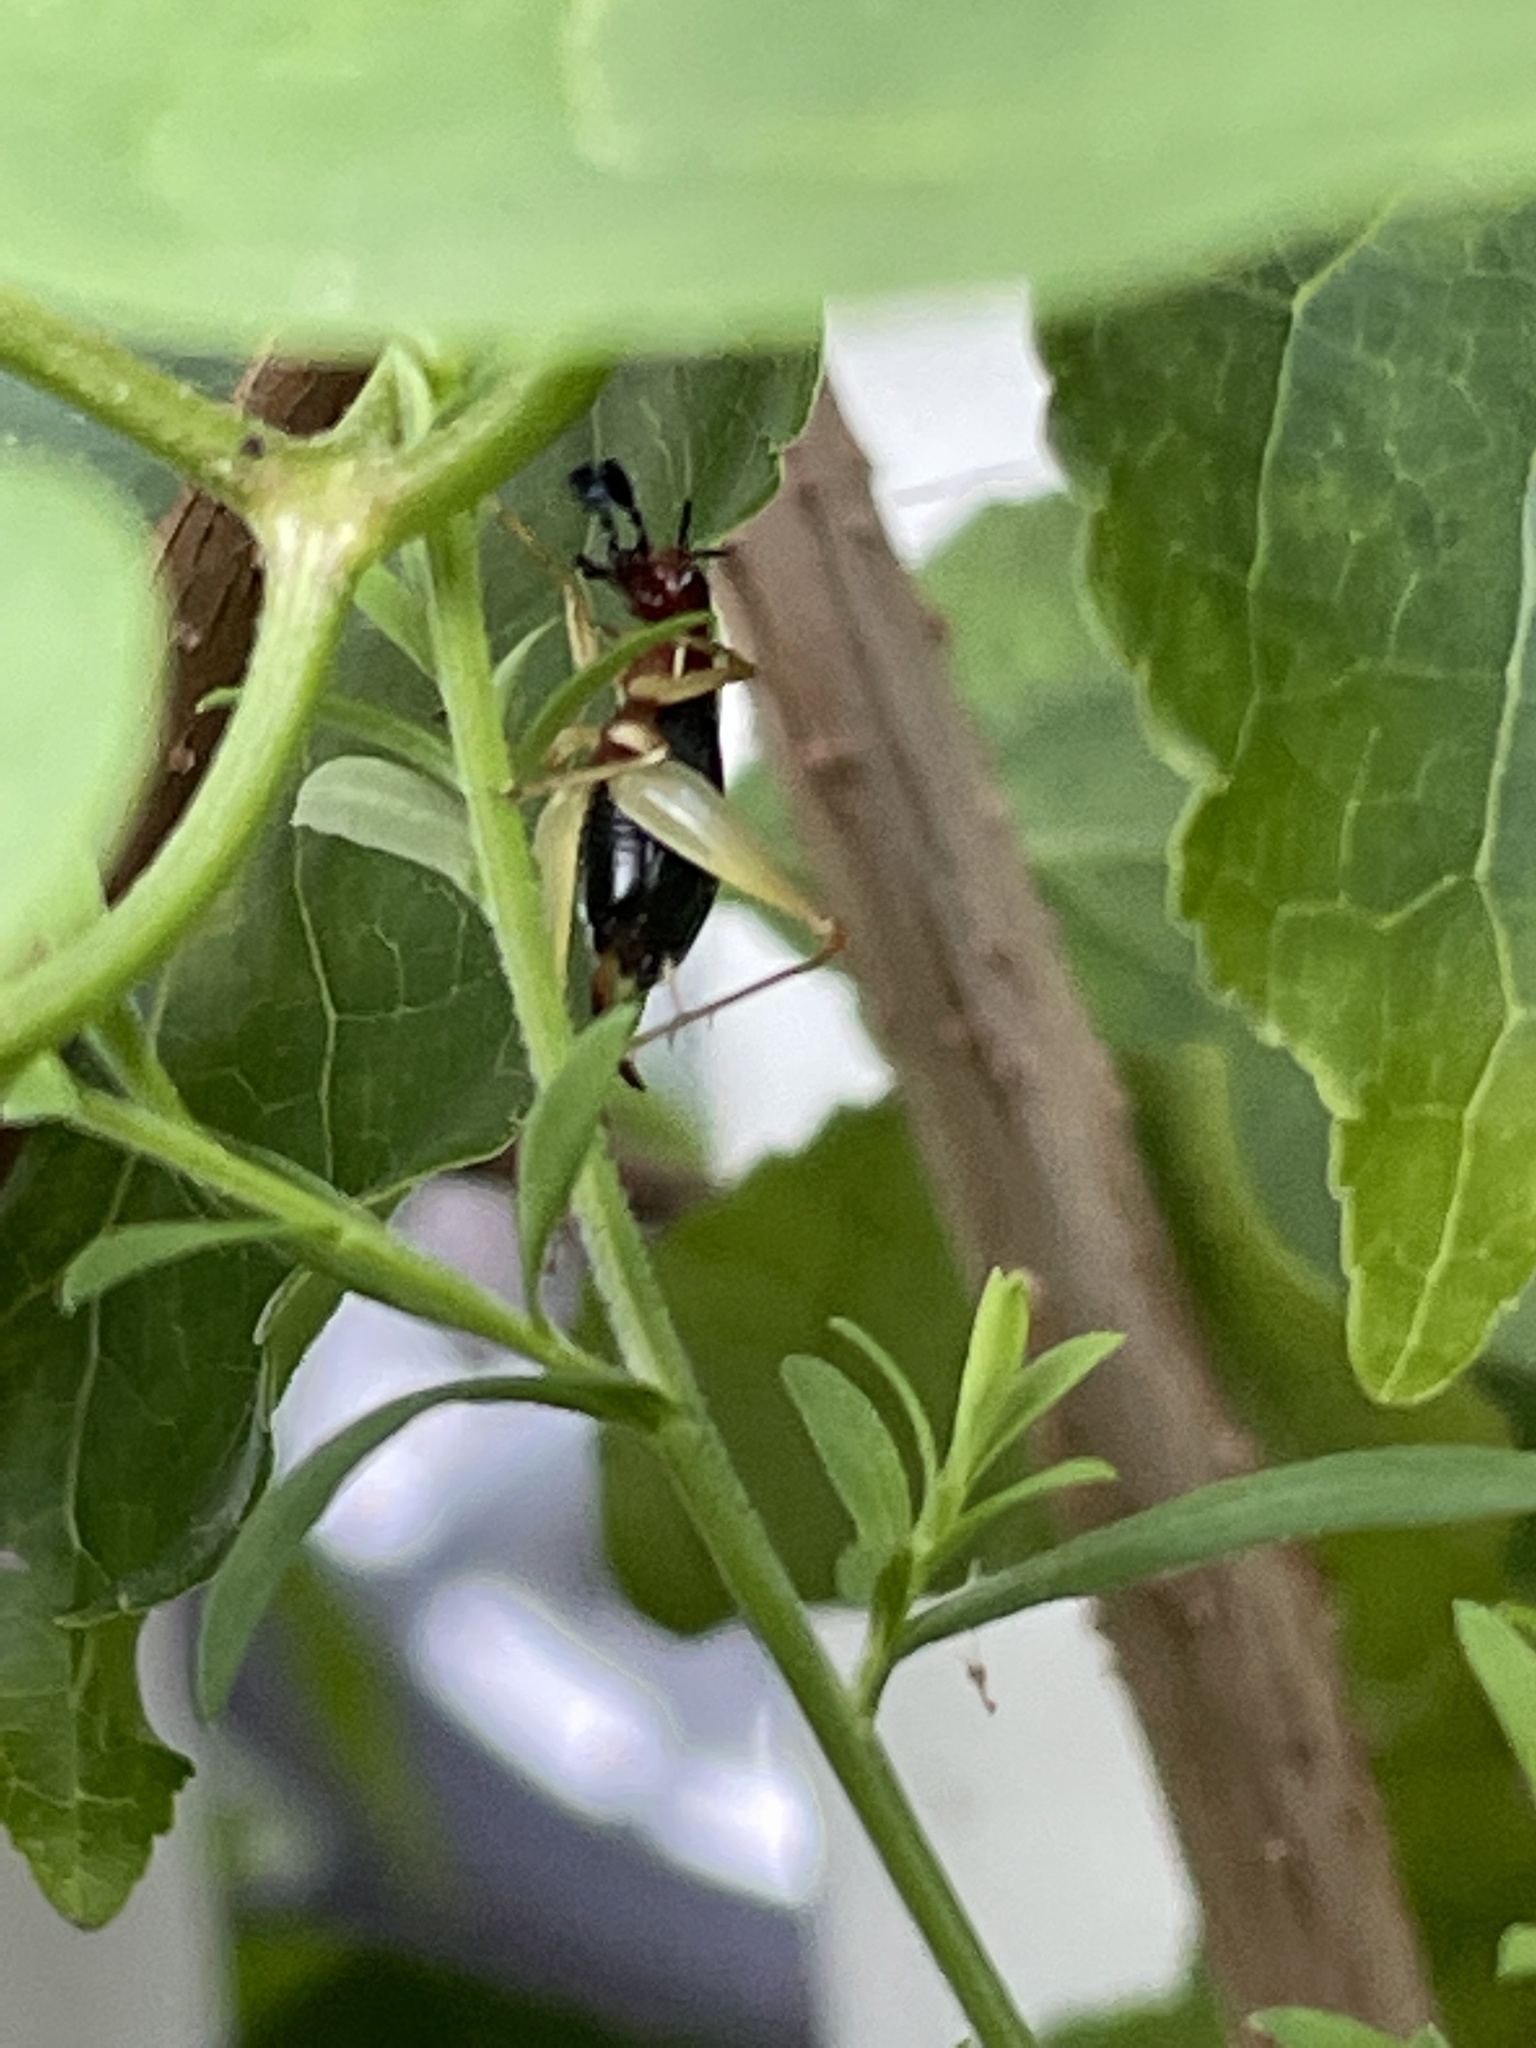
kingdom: Animalia
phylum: Arthropoda
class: Insecta
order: Orthoptera
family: Trigonidiidae
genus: Phyllopalpus
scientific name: Phyllopalpus pulchellus
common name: Handsome trig
